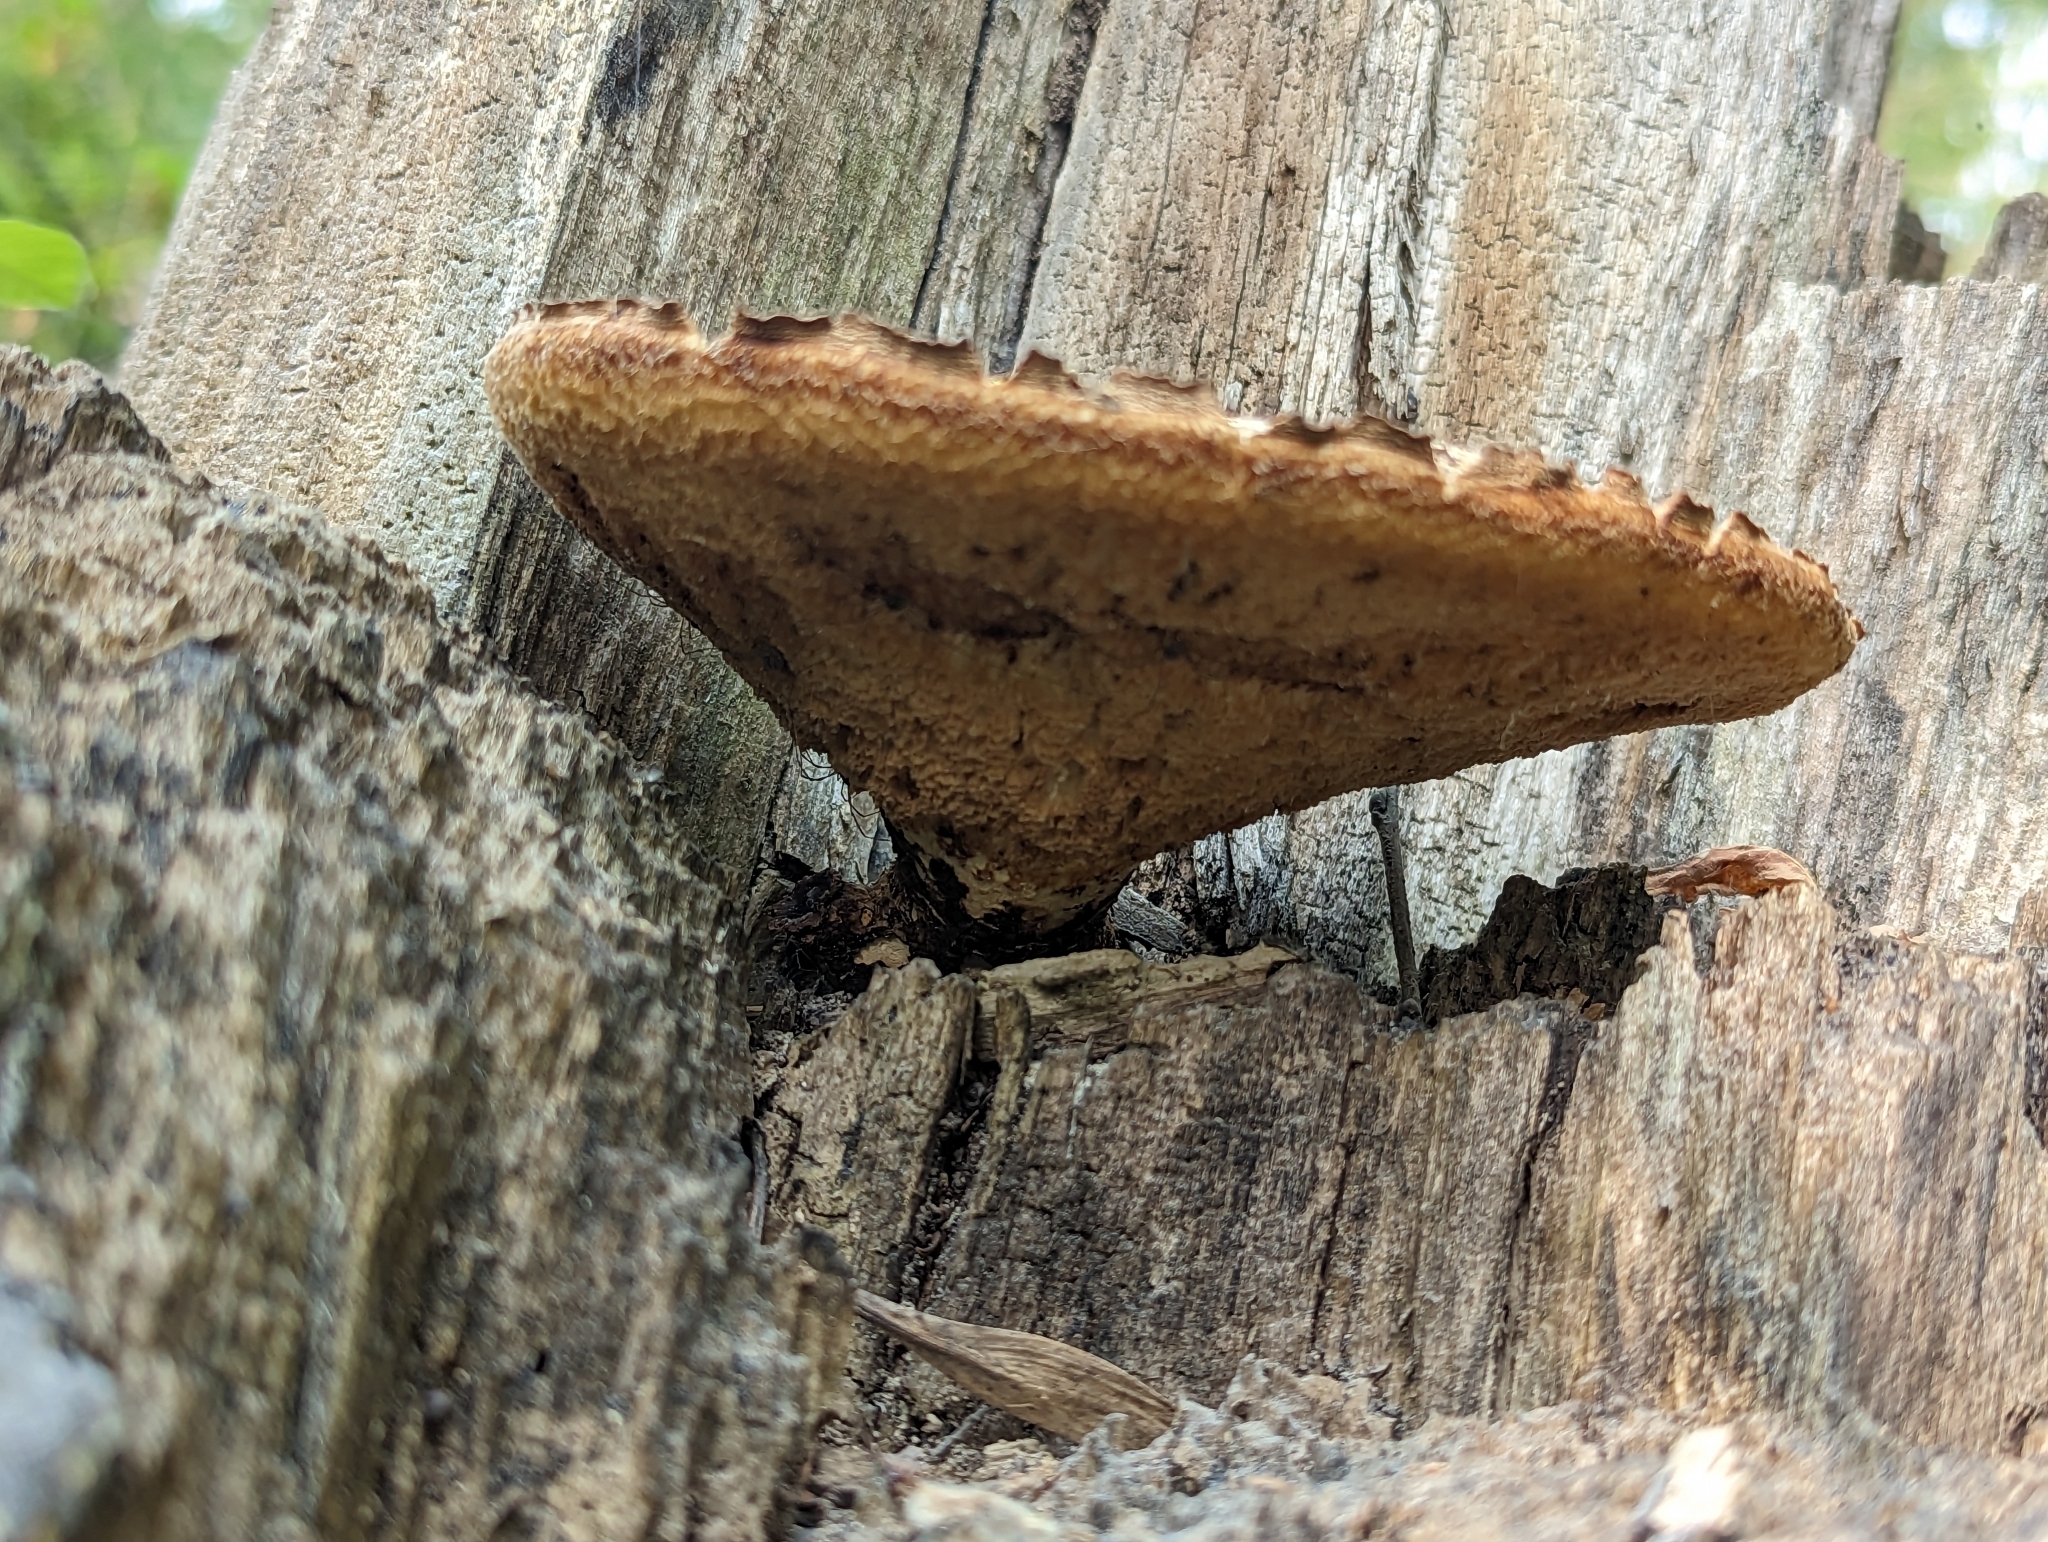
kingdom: Fungi
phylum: Basidiomycota
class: Agaricomycetes
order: Polyporales
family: Polyporaceae
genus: Cerioporus
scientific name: Cerioporus squamosus
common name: Dryad's saddle
